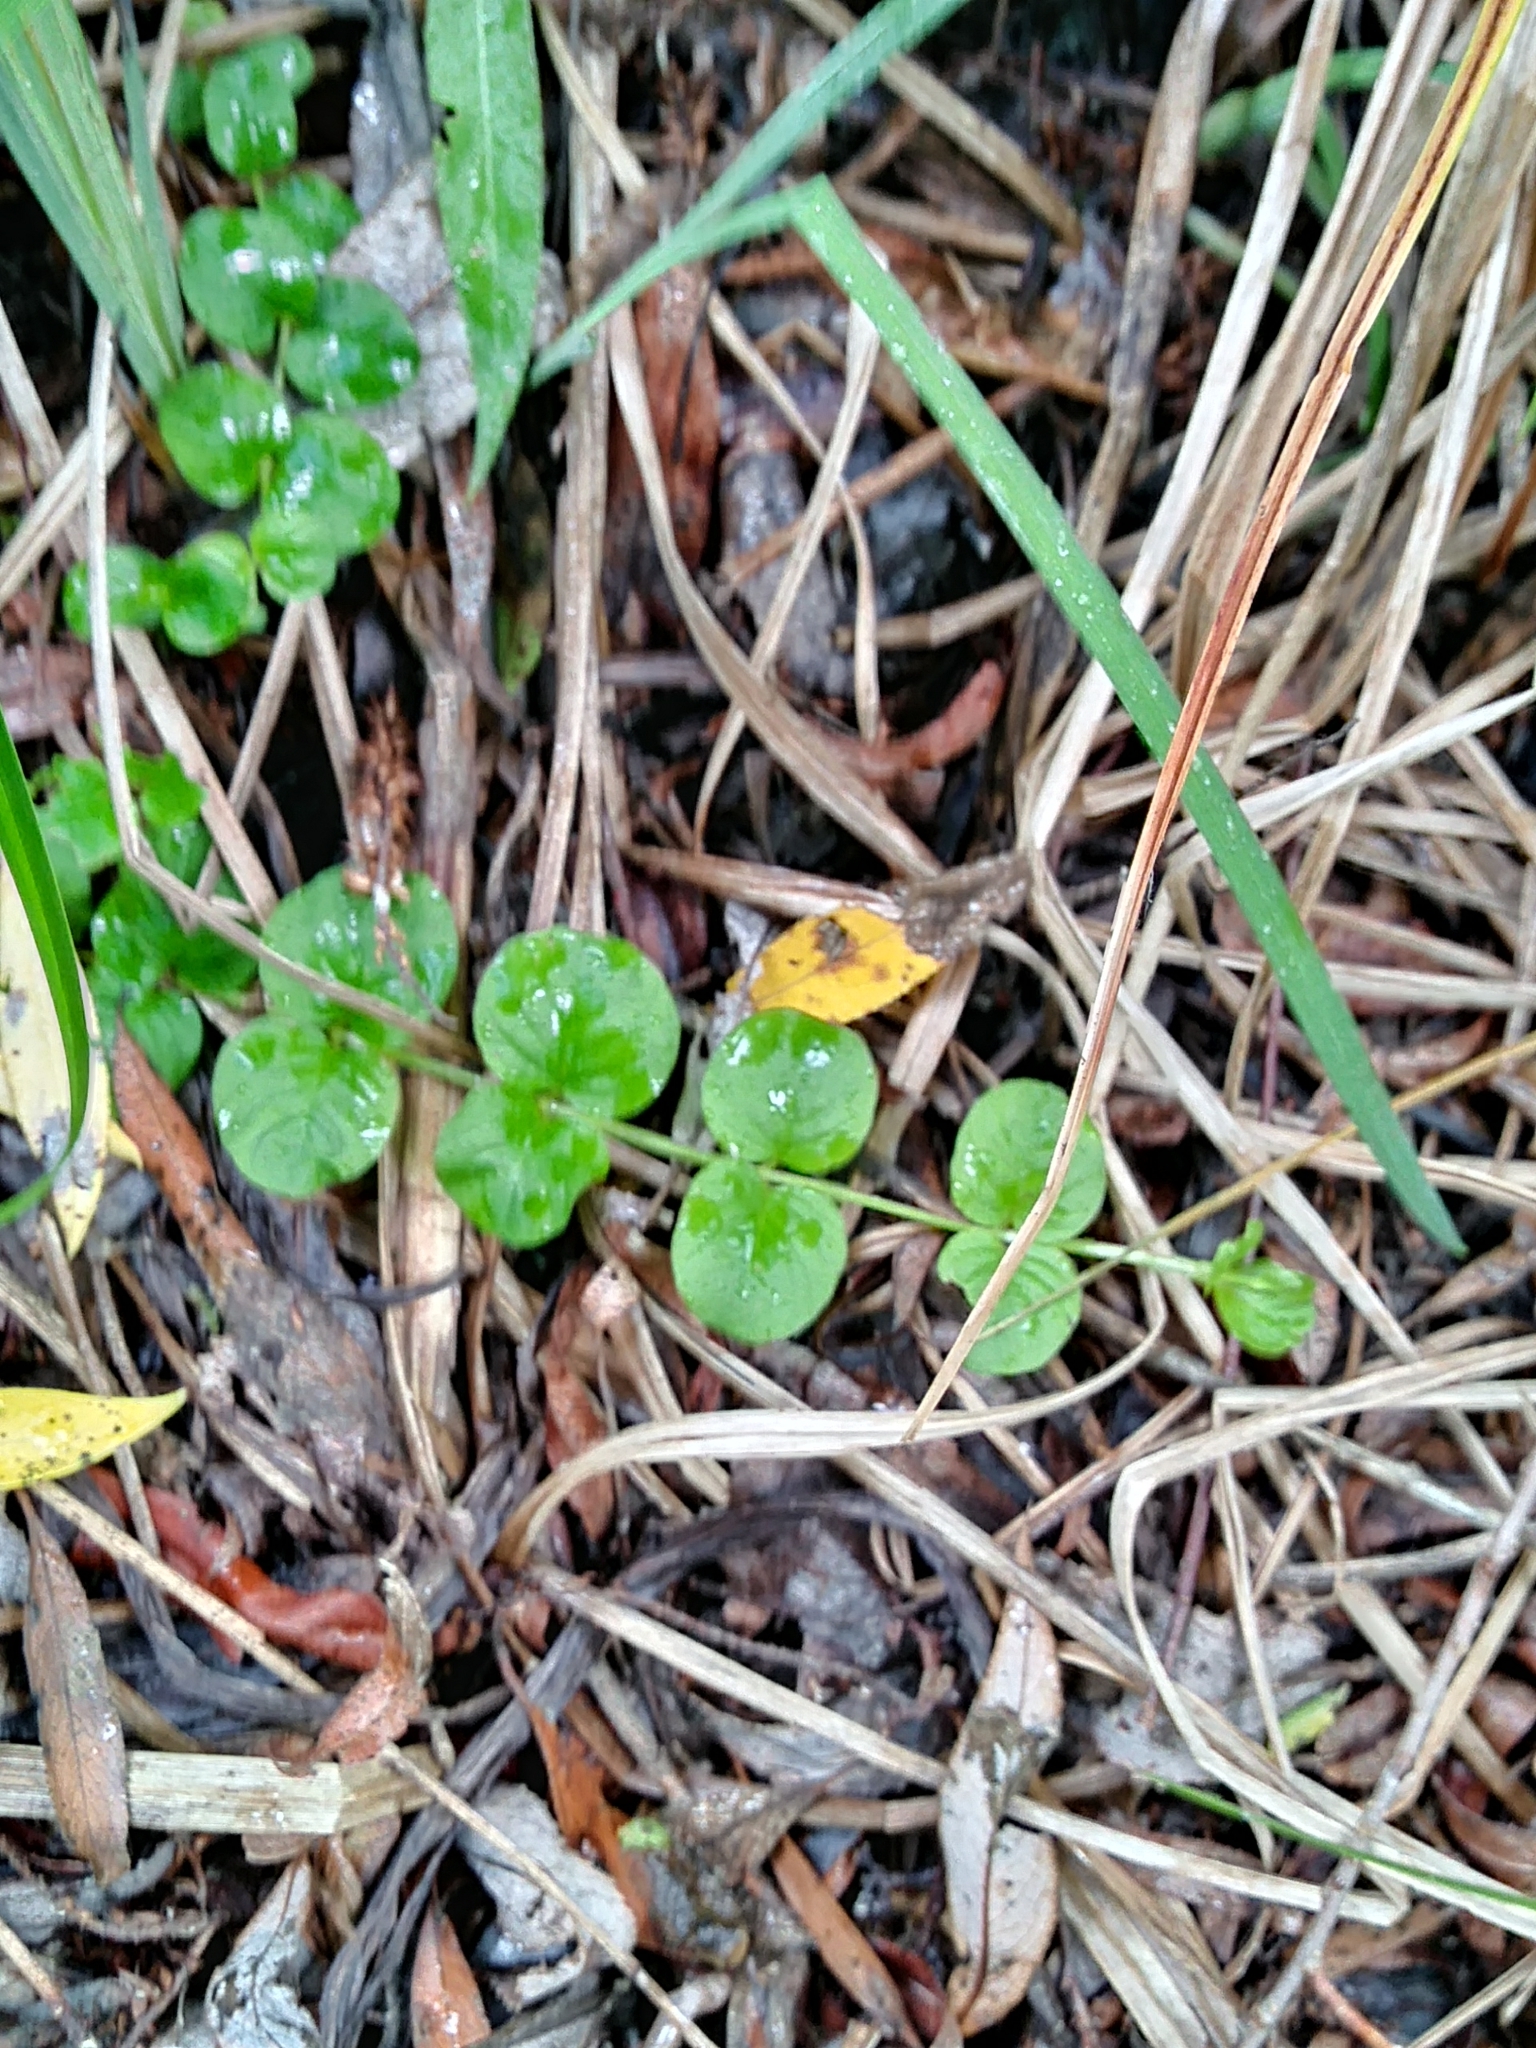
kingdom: Plantae
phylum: Tracheophyta
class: Magnoliopsida
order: Ericales
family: Primulaceae
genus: Lysimachia
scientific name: Lysimachia nummularia
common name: Moneywort
